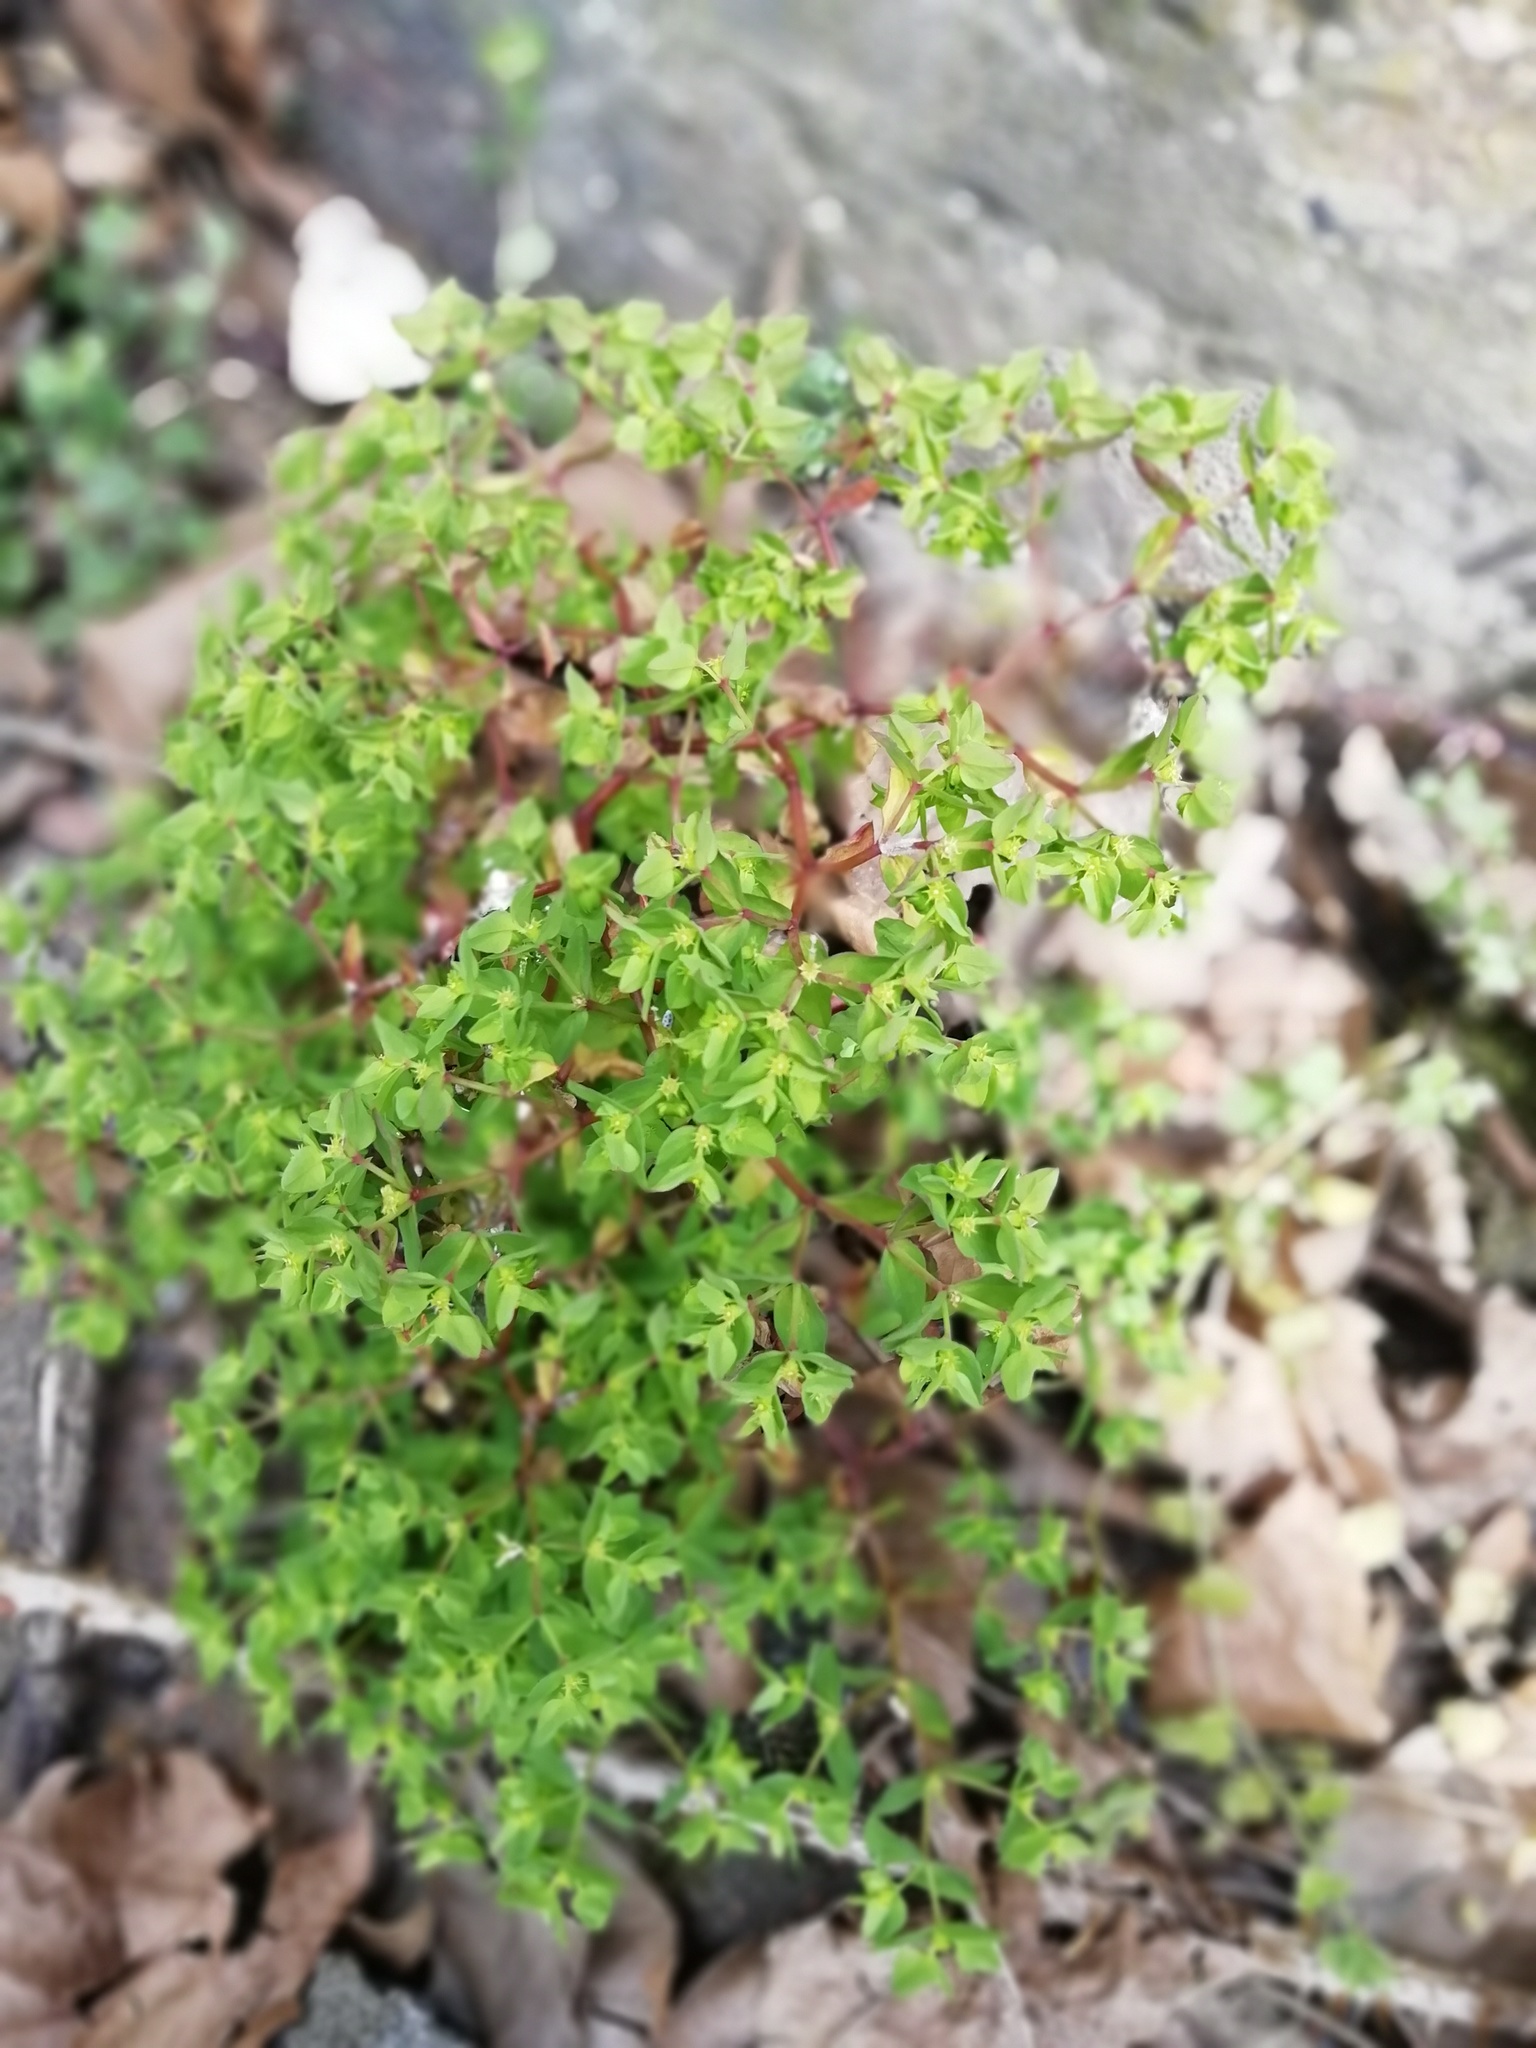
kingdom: Plantae
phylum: Tracheophyta
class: Magnoliopsida
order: Malpighiales
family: Euphorbiaceae
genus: Euphorbia
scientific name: Euphorbia peplus
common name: Petty spurge
